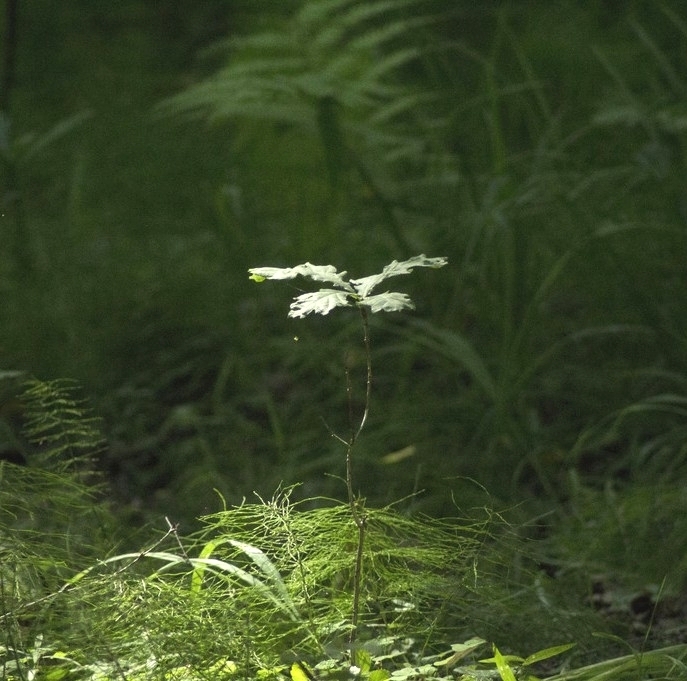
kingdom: Plantae
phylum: Tracheophyta
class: Magnoliopsida
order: Fagales
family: Fagaceae
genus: Quercus
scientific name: Quercus robur
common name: Pedunculate oak
